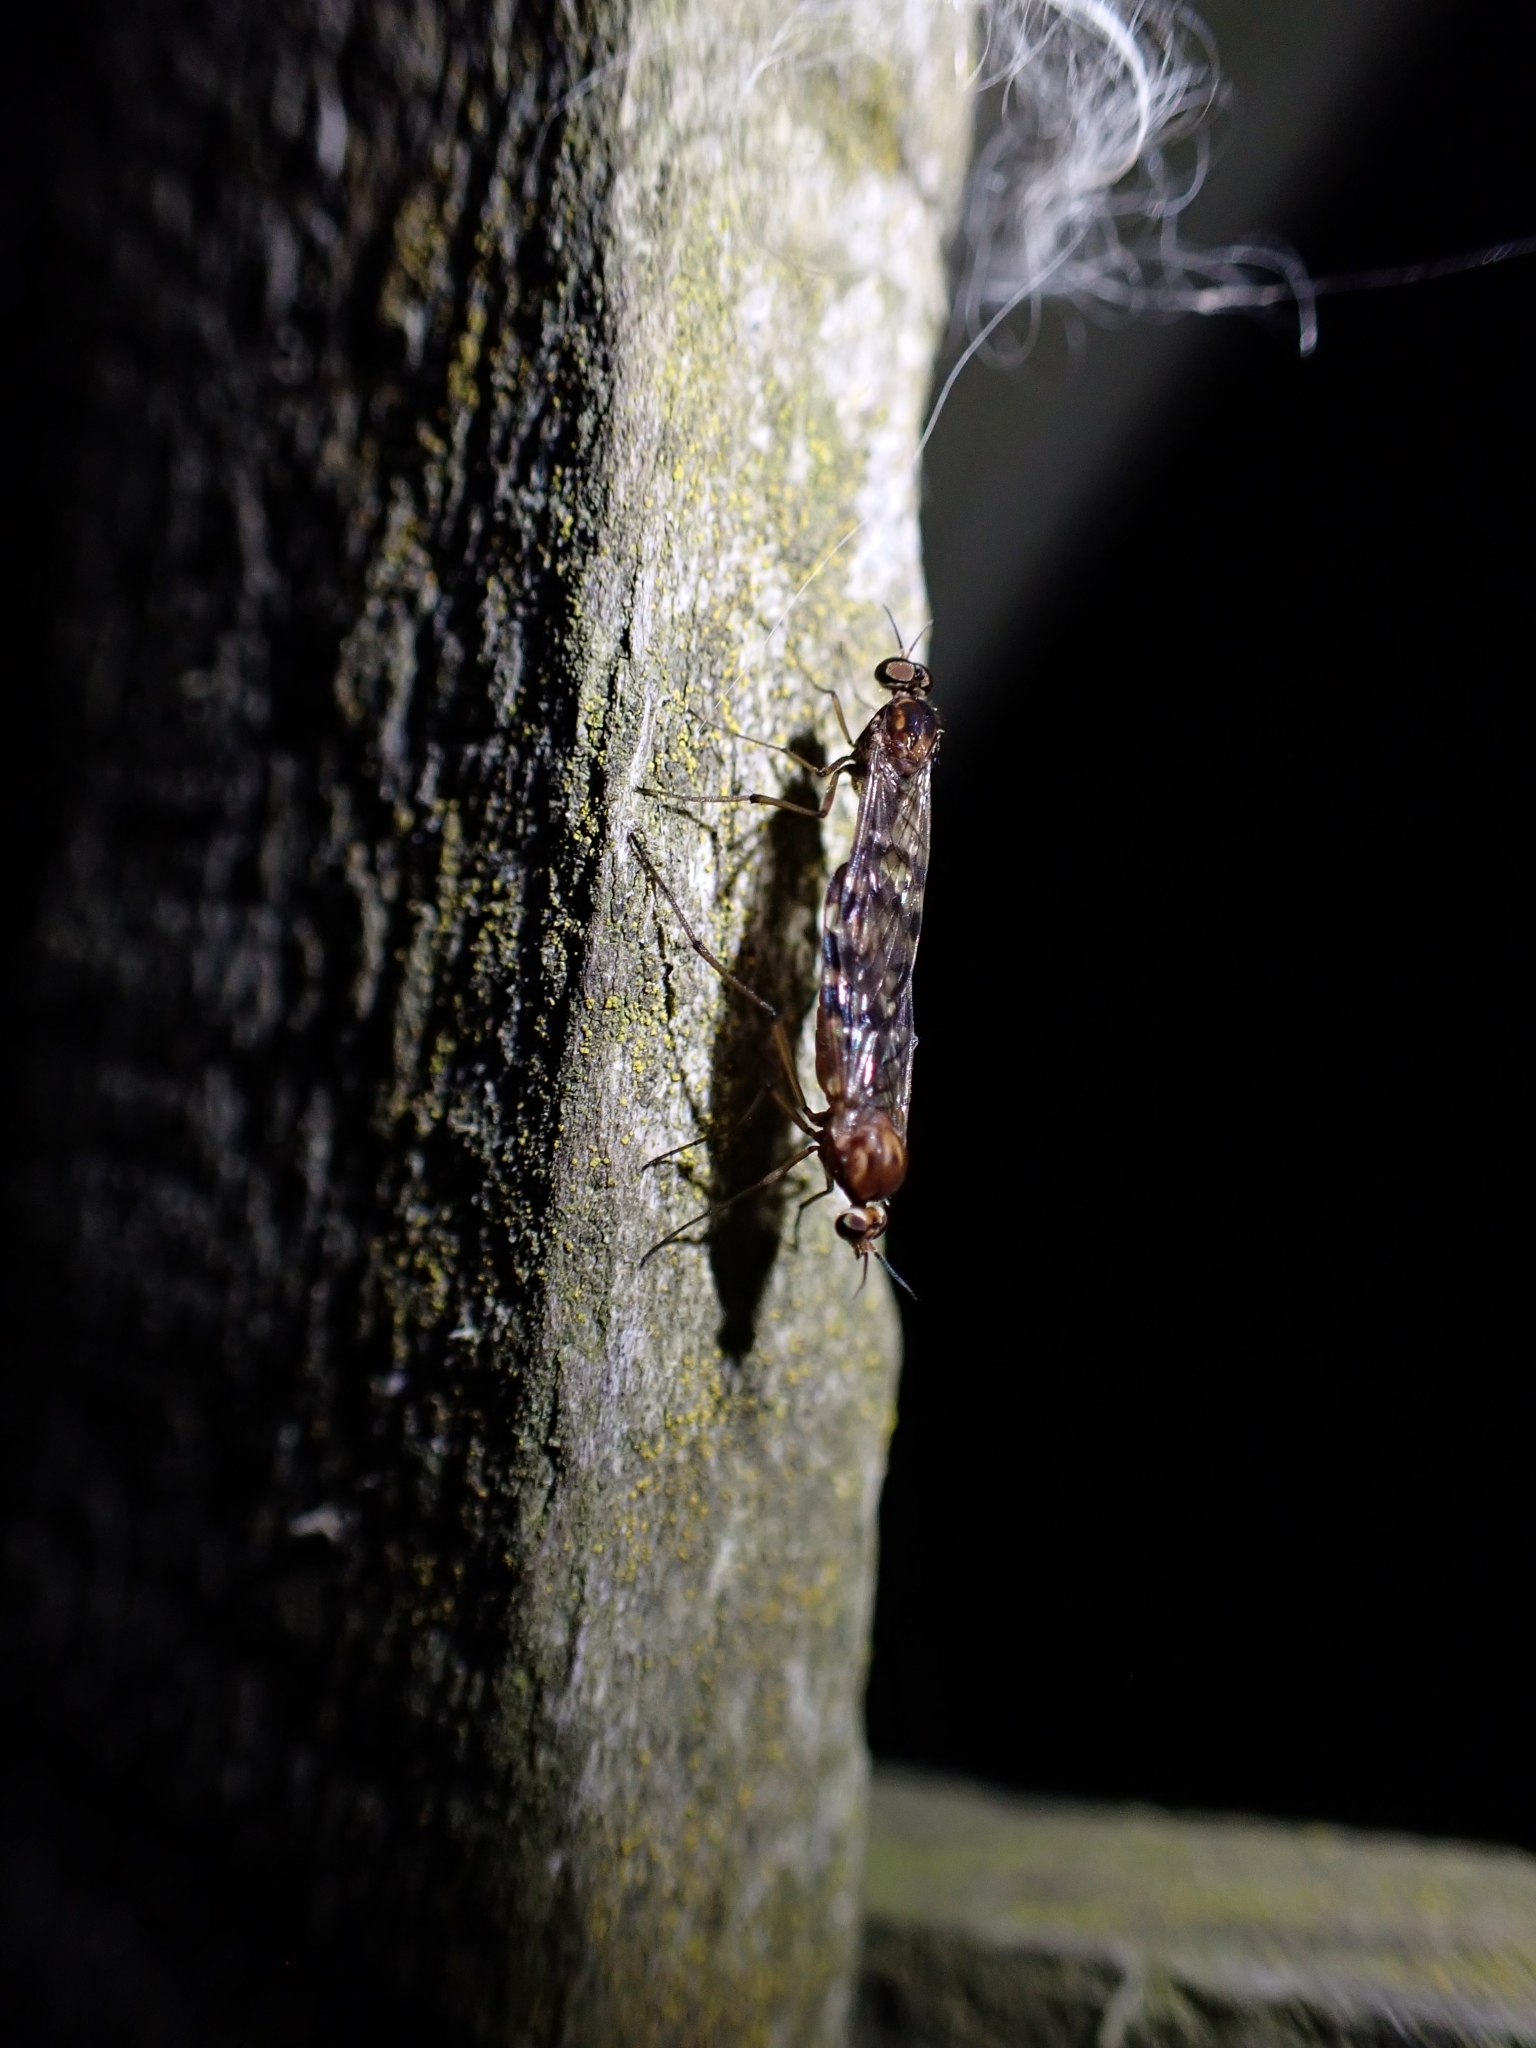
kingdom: Animalia
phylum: Arthropoda
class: Insecta
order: Diptera
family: Anisopodidae
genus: Sylvicola
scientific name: Sylvicola notatus
